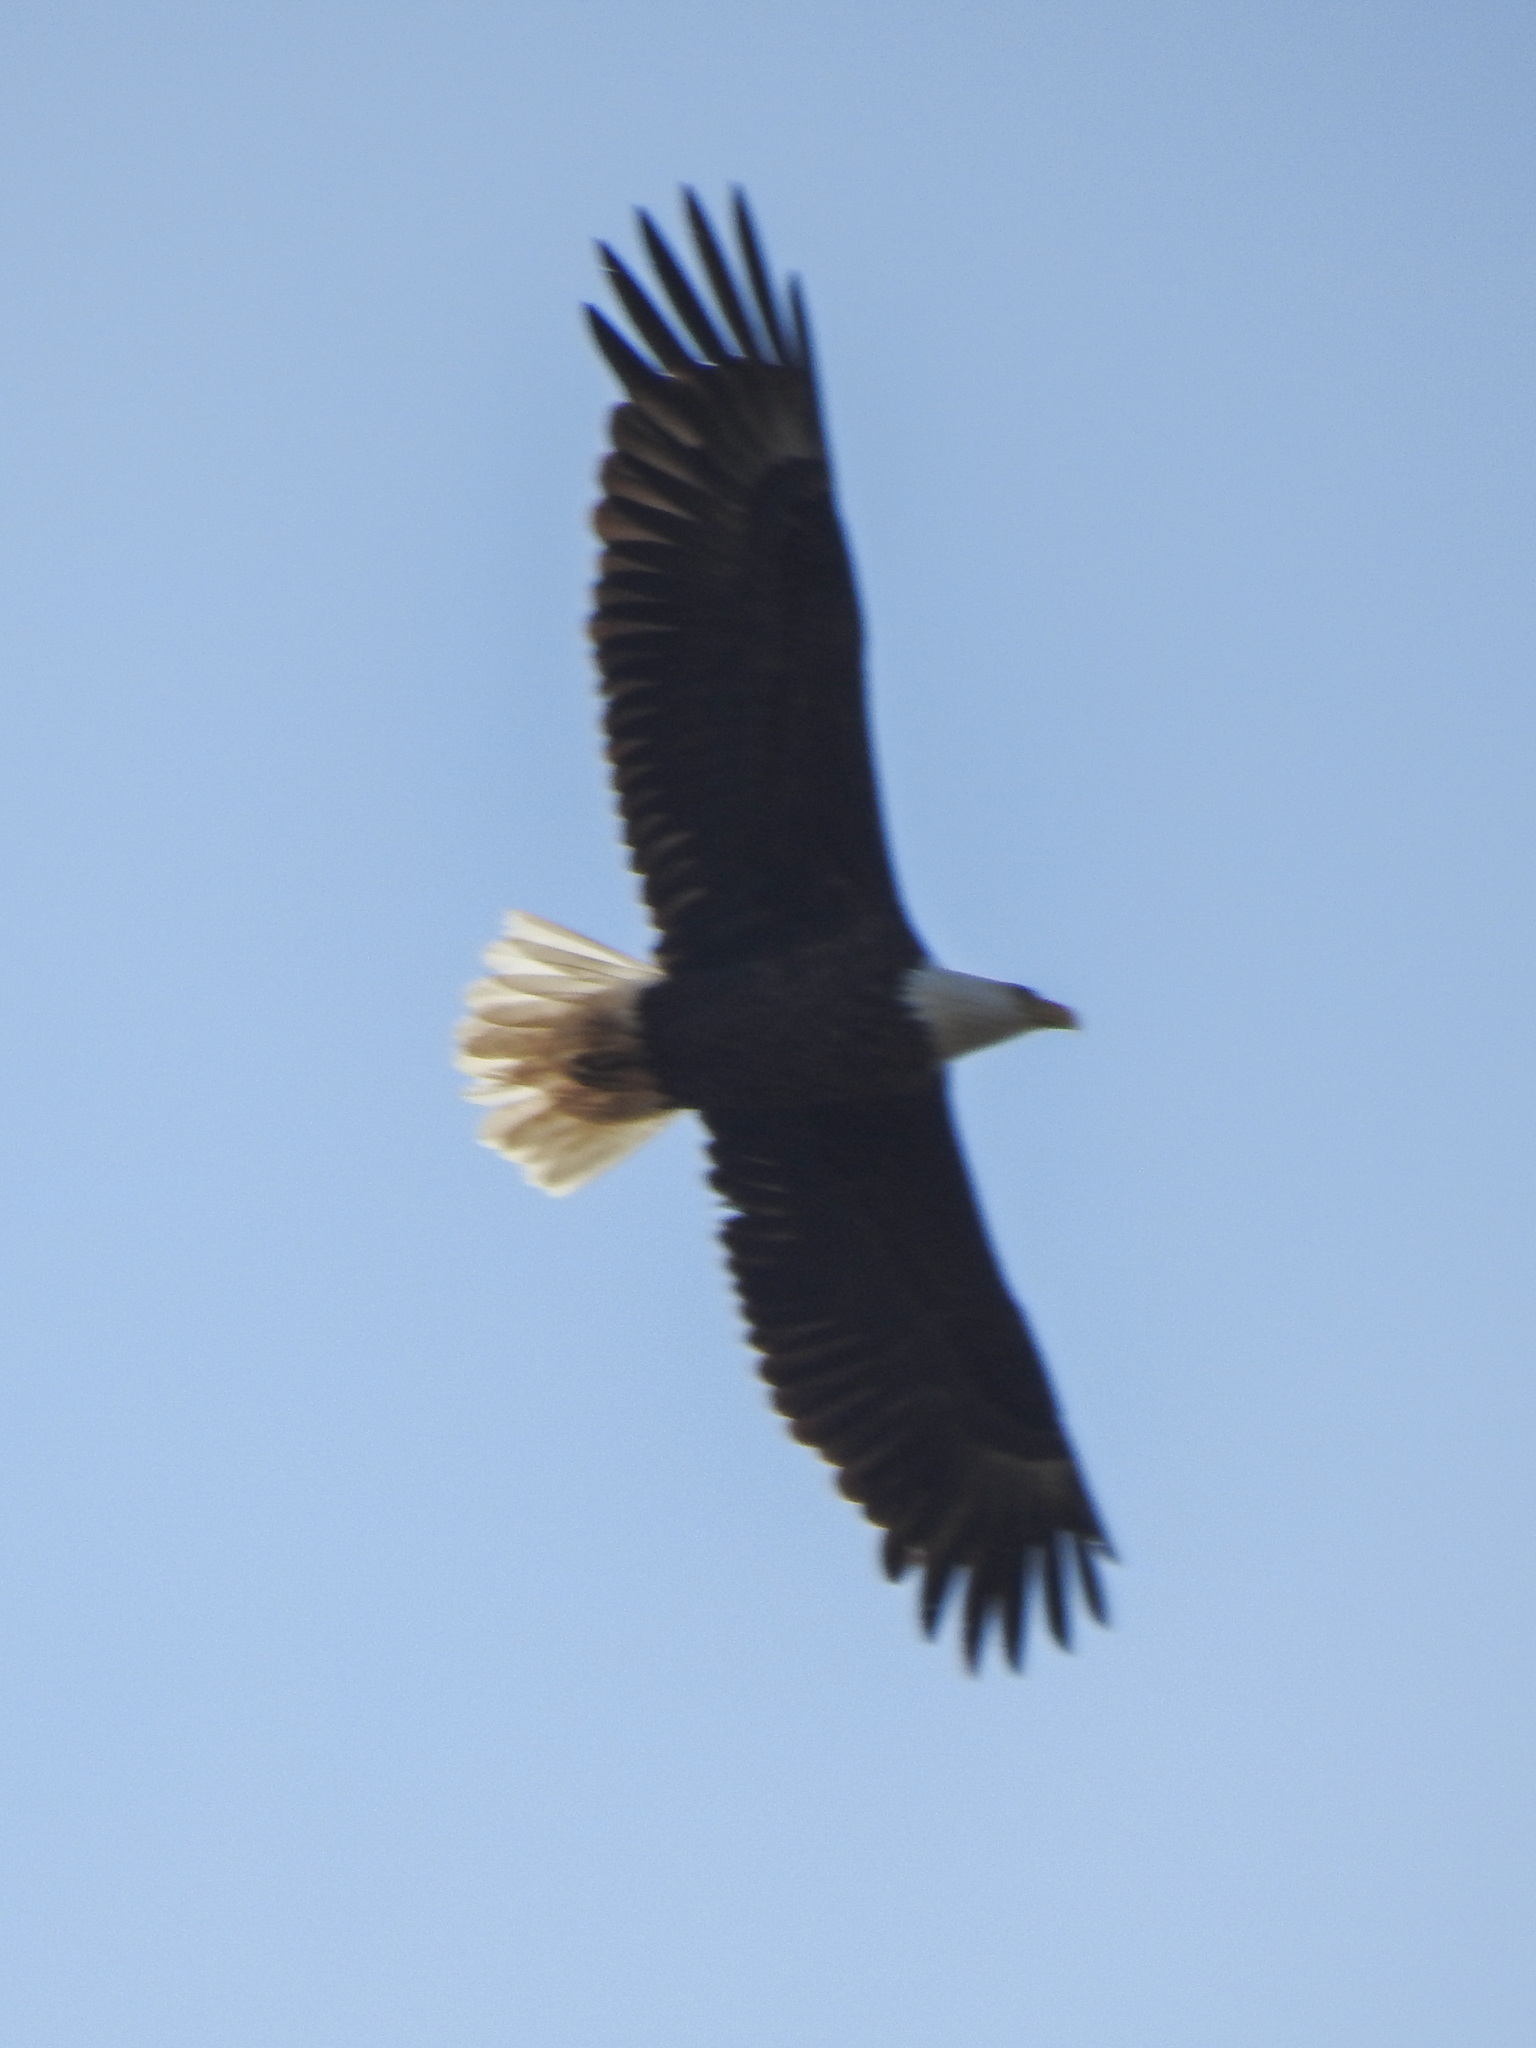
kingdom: Animalia
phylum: Chordata
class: Aves
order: Accipitriformes
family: Accipitridae
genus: Haliaeetus
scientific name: Haliaeetus leucocephalus
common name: Bald eagle
